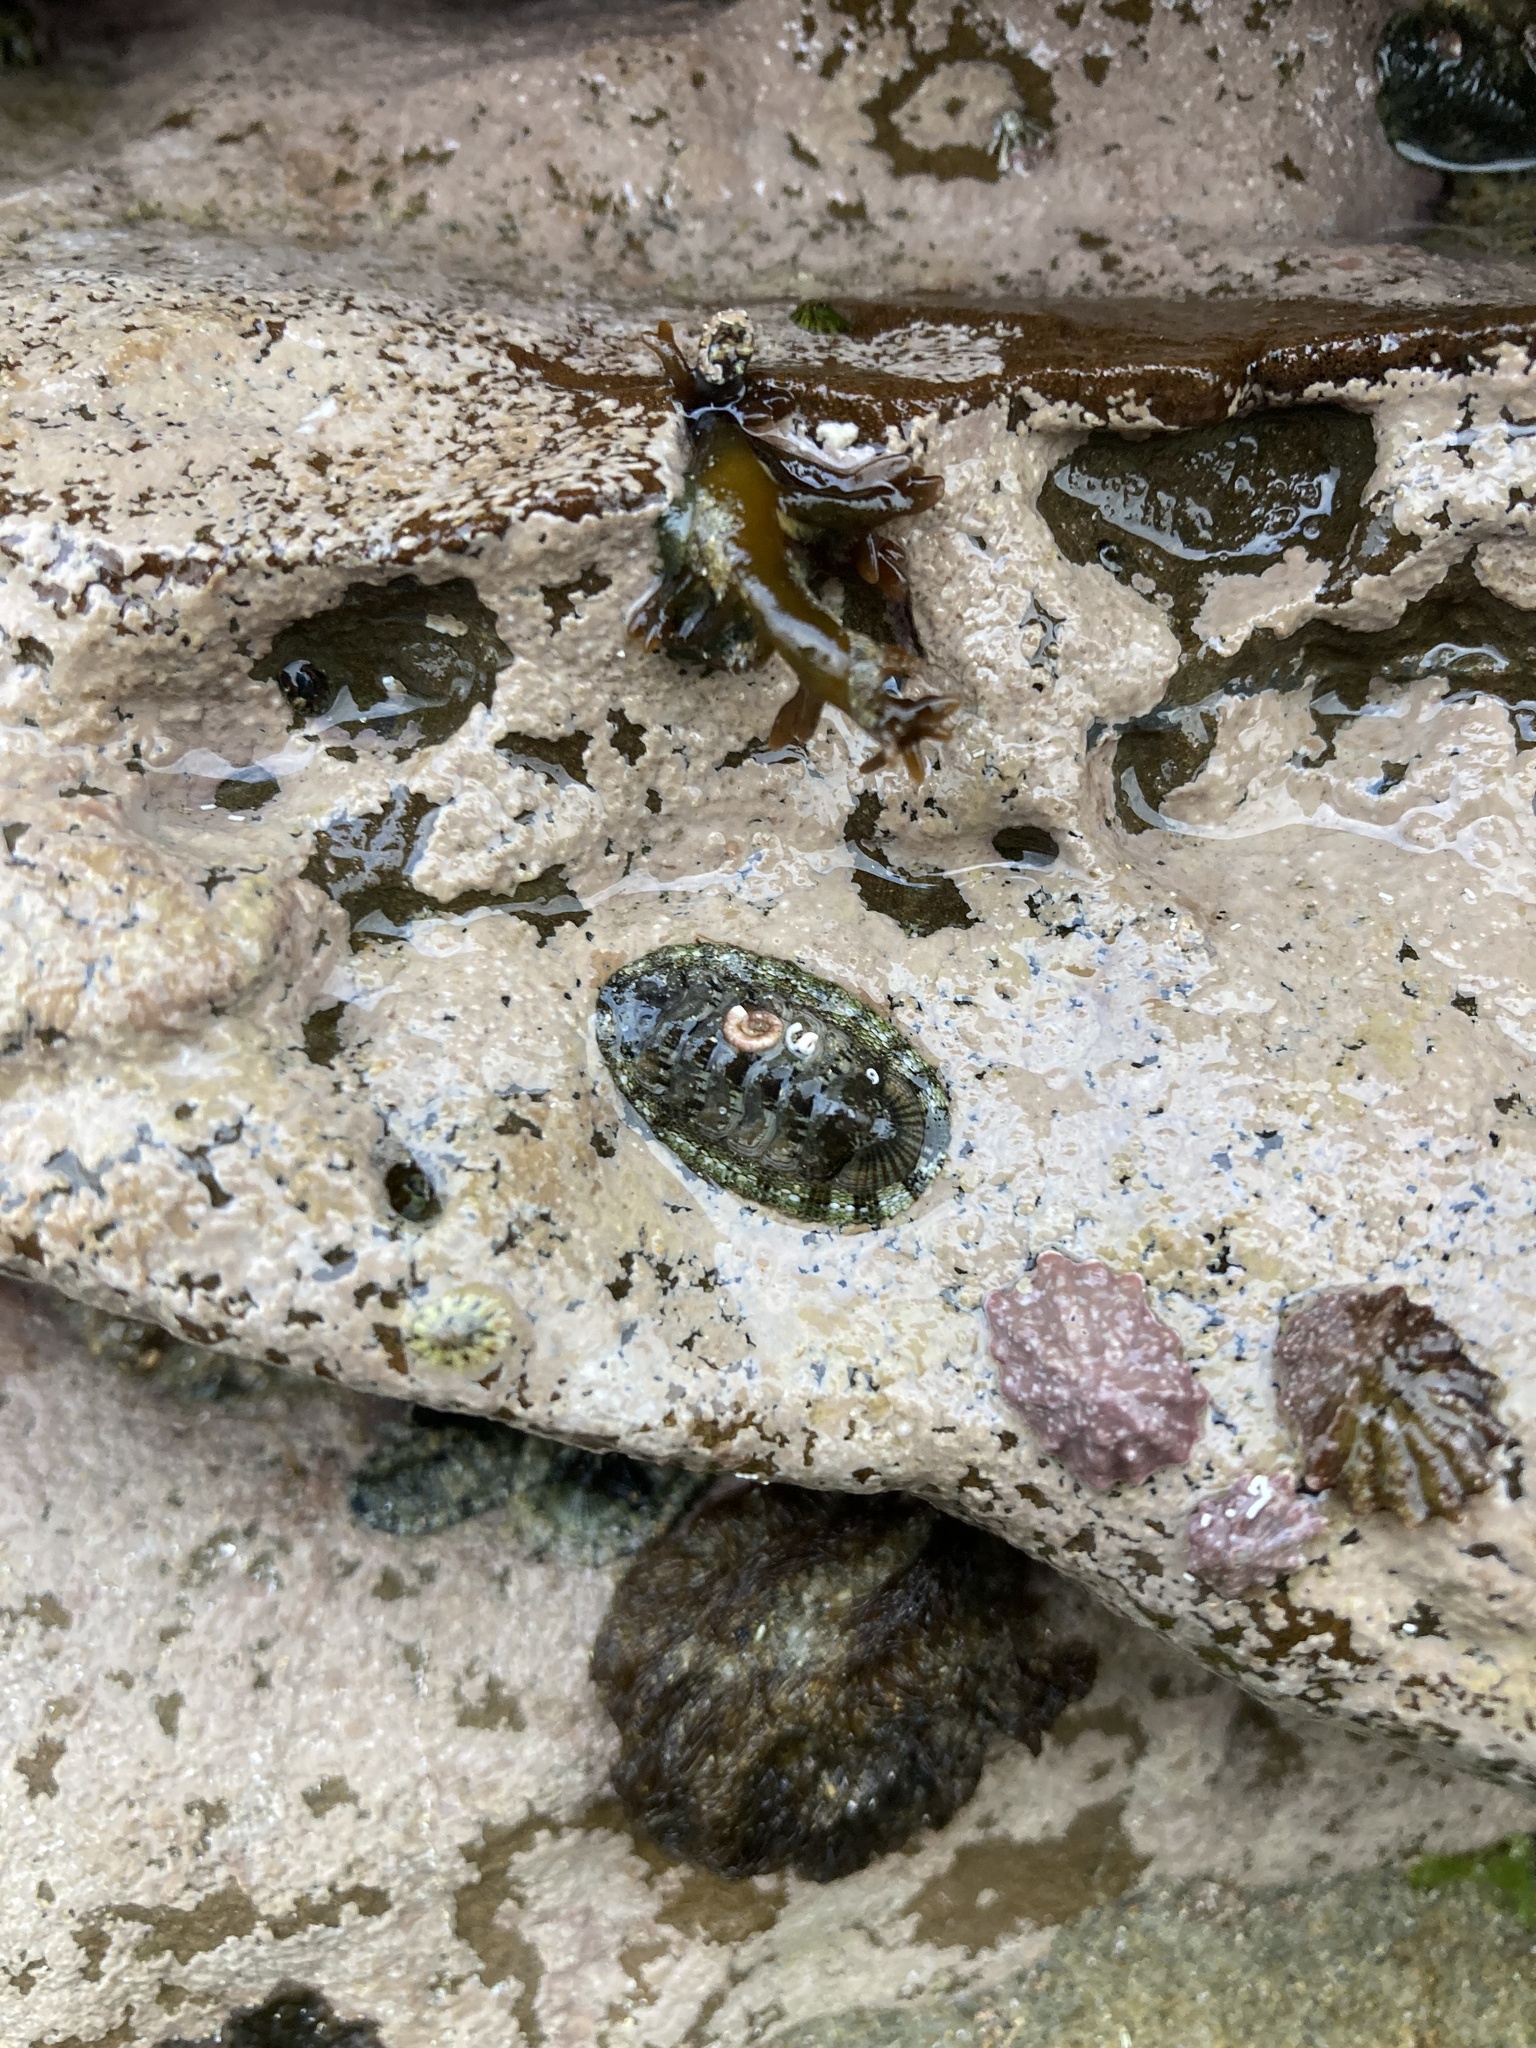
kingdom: Animalia
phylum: Mollusca
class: Polyplacophora
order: Chitonida
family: Chitonidae
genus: Sypharochiton
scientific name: Sypharochiton pelliserpentis
